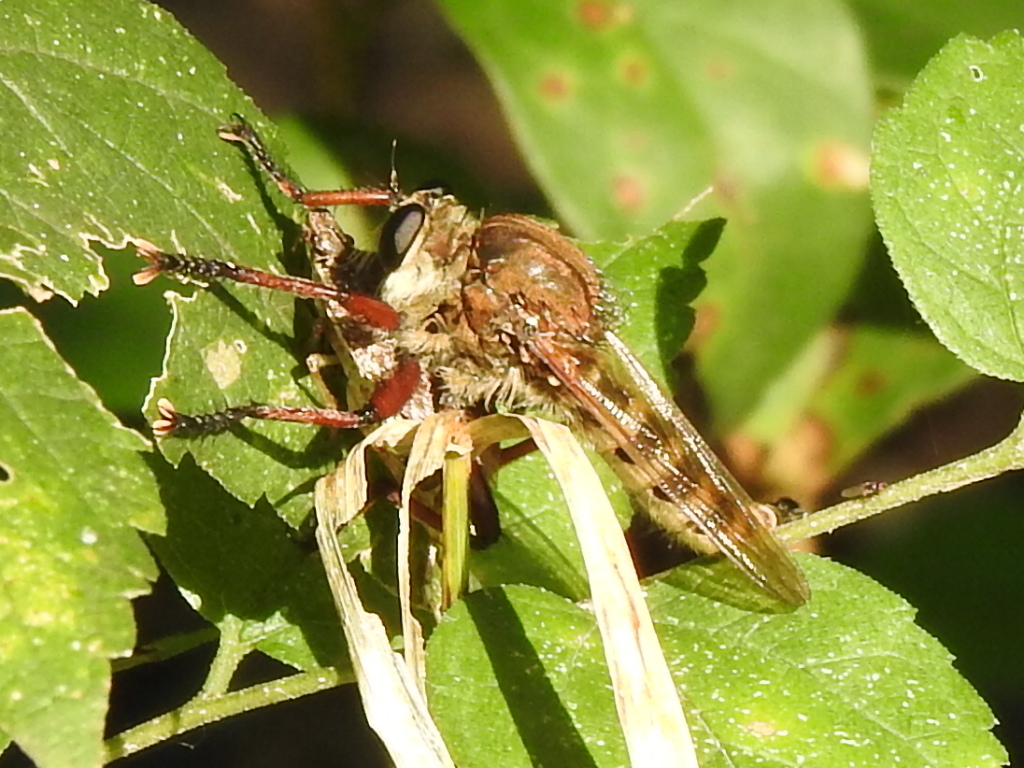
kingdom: Animalia
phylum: Arthropoda
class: Insecta
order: Diptera
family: Asilidae
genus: Promachus
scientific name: Promachus hinei
